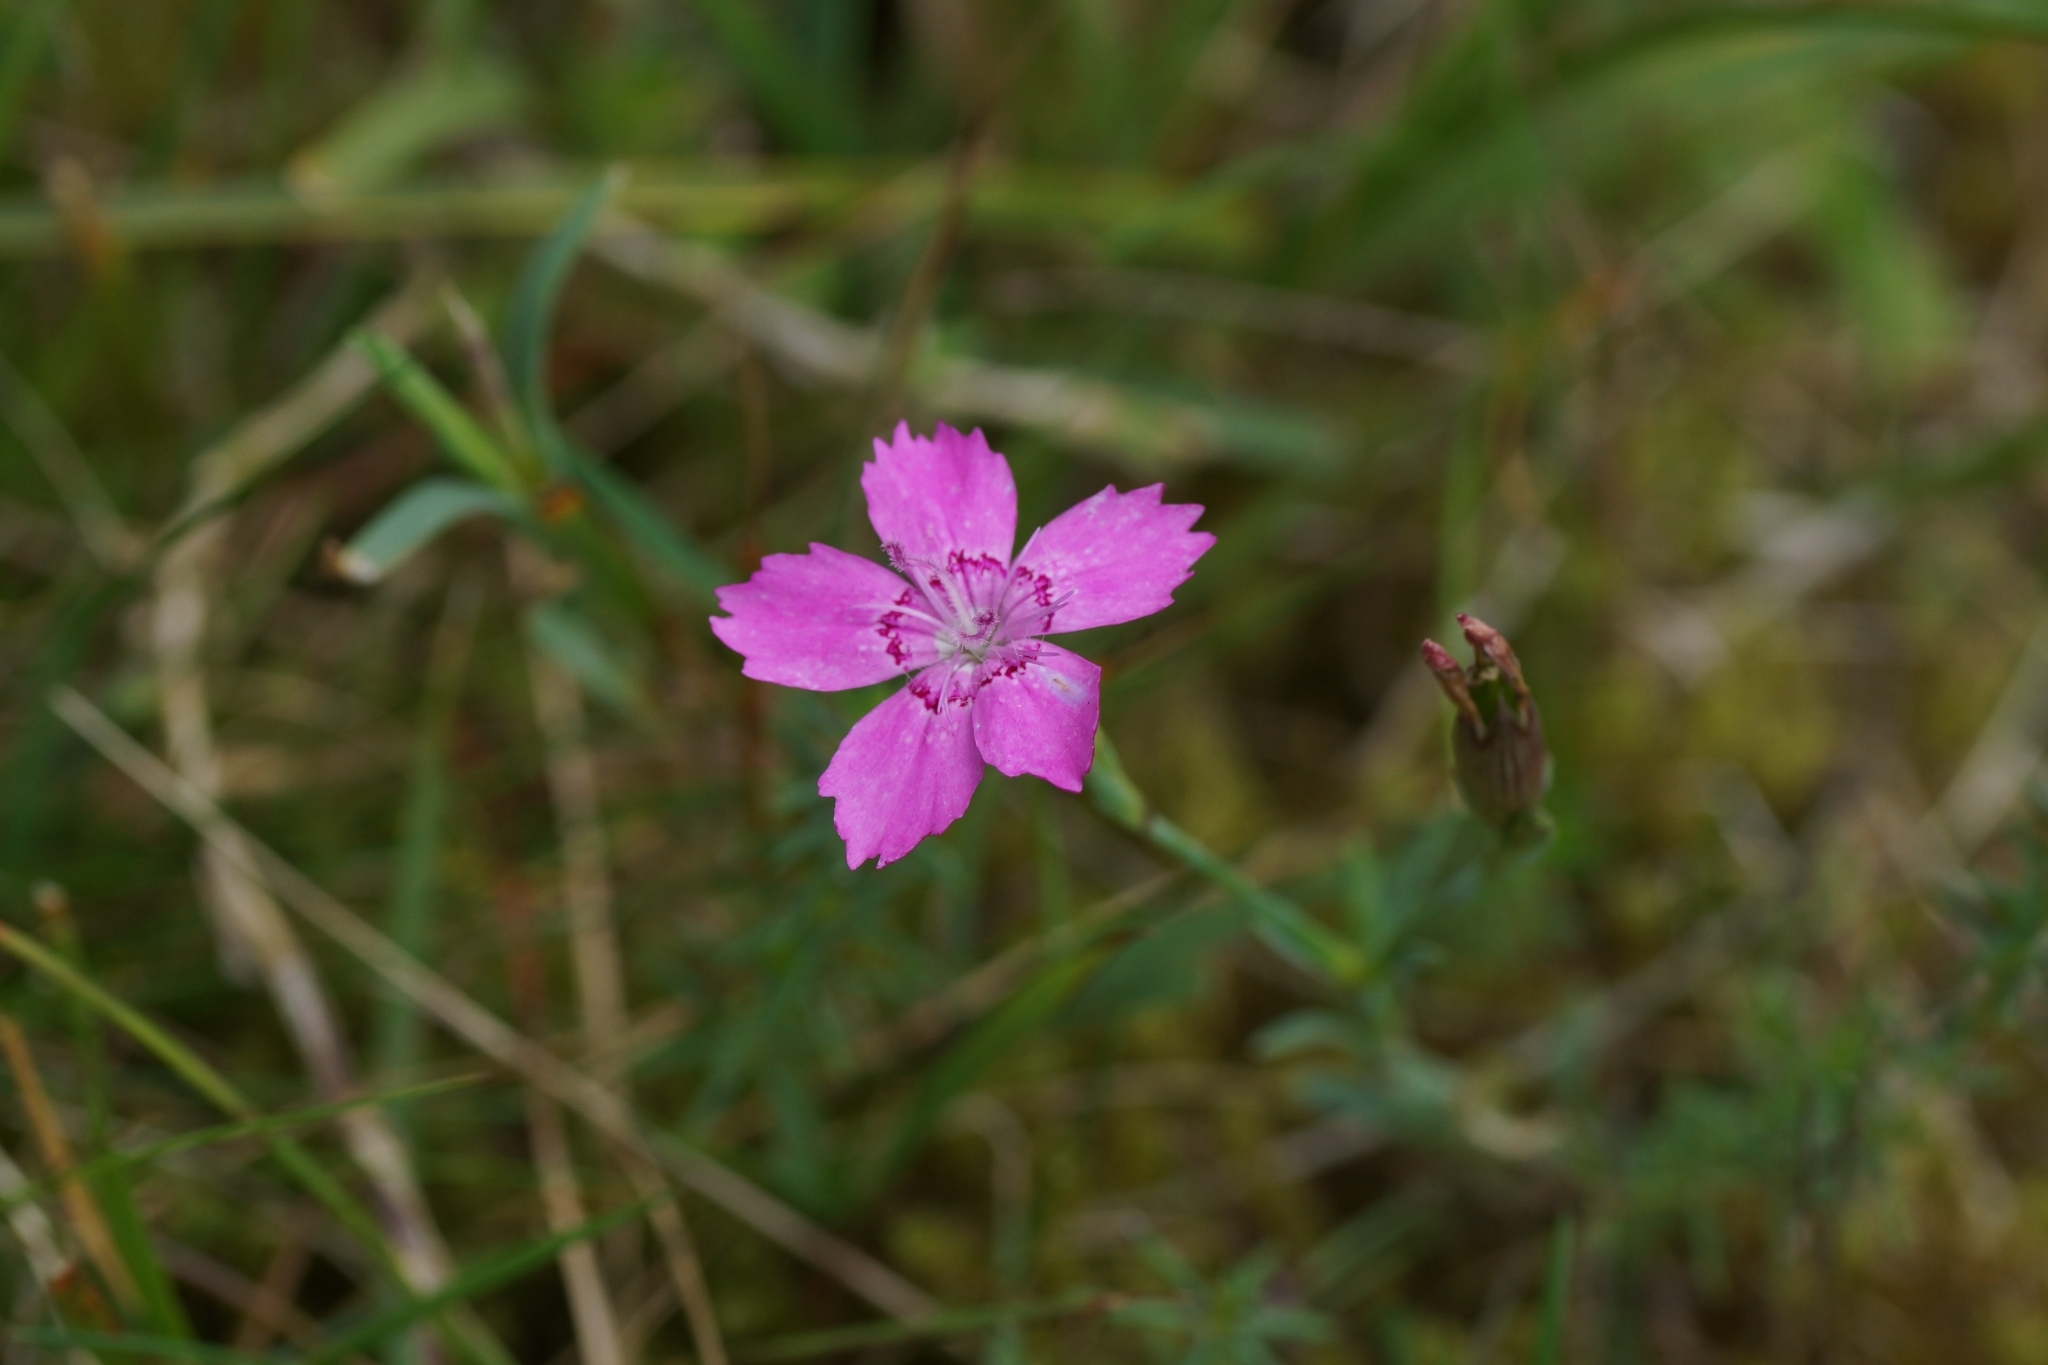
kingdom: Plantae
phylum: Tracheophyta
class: Magnoliopsida
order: Caryophyllales
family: Caryophyllaceae
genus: Dianthus
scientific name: Dianthus deltoides
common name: Maiden pink
